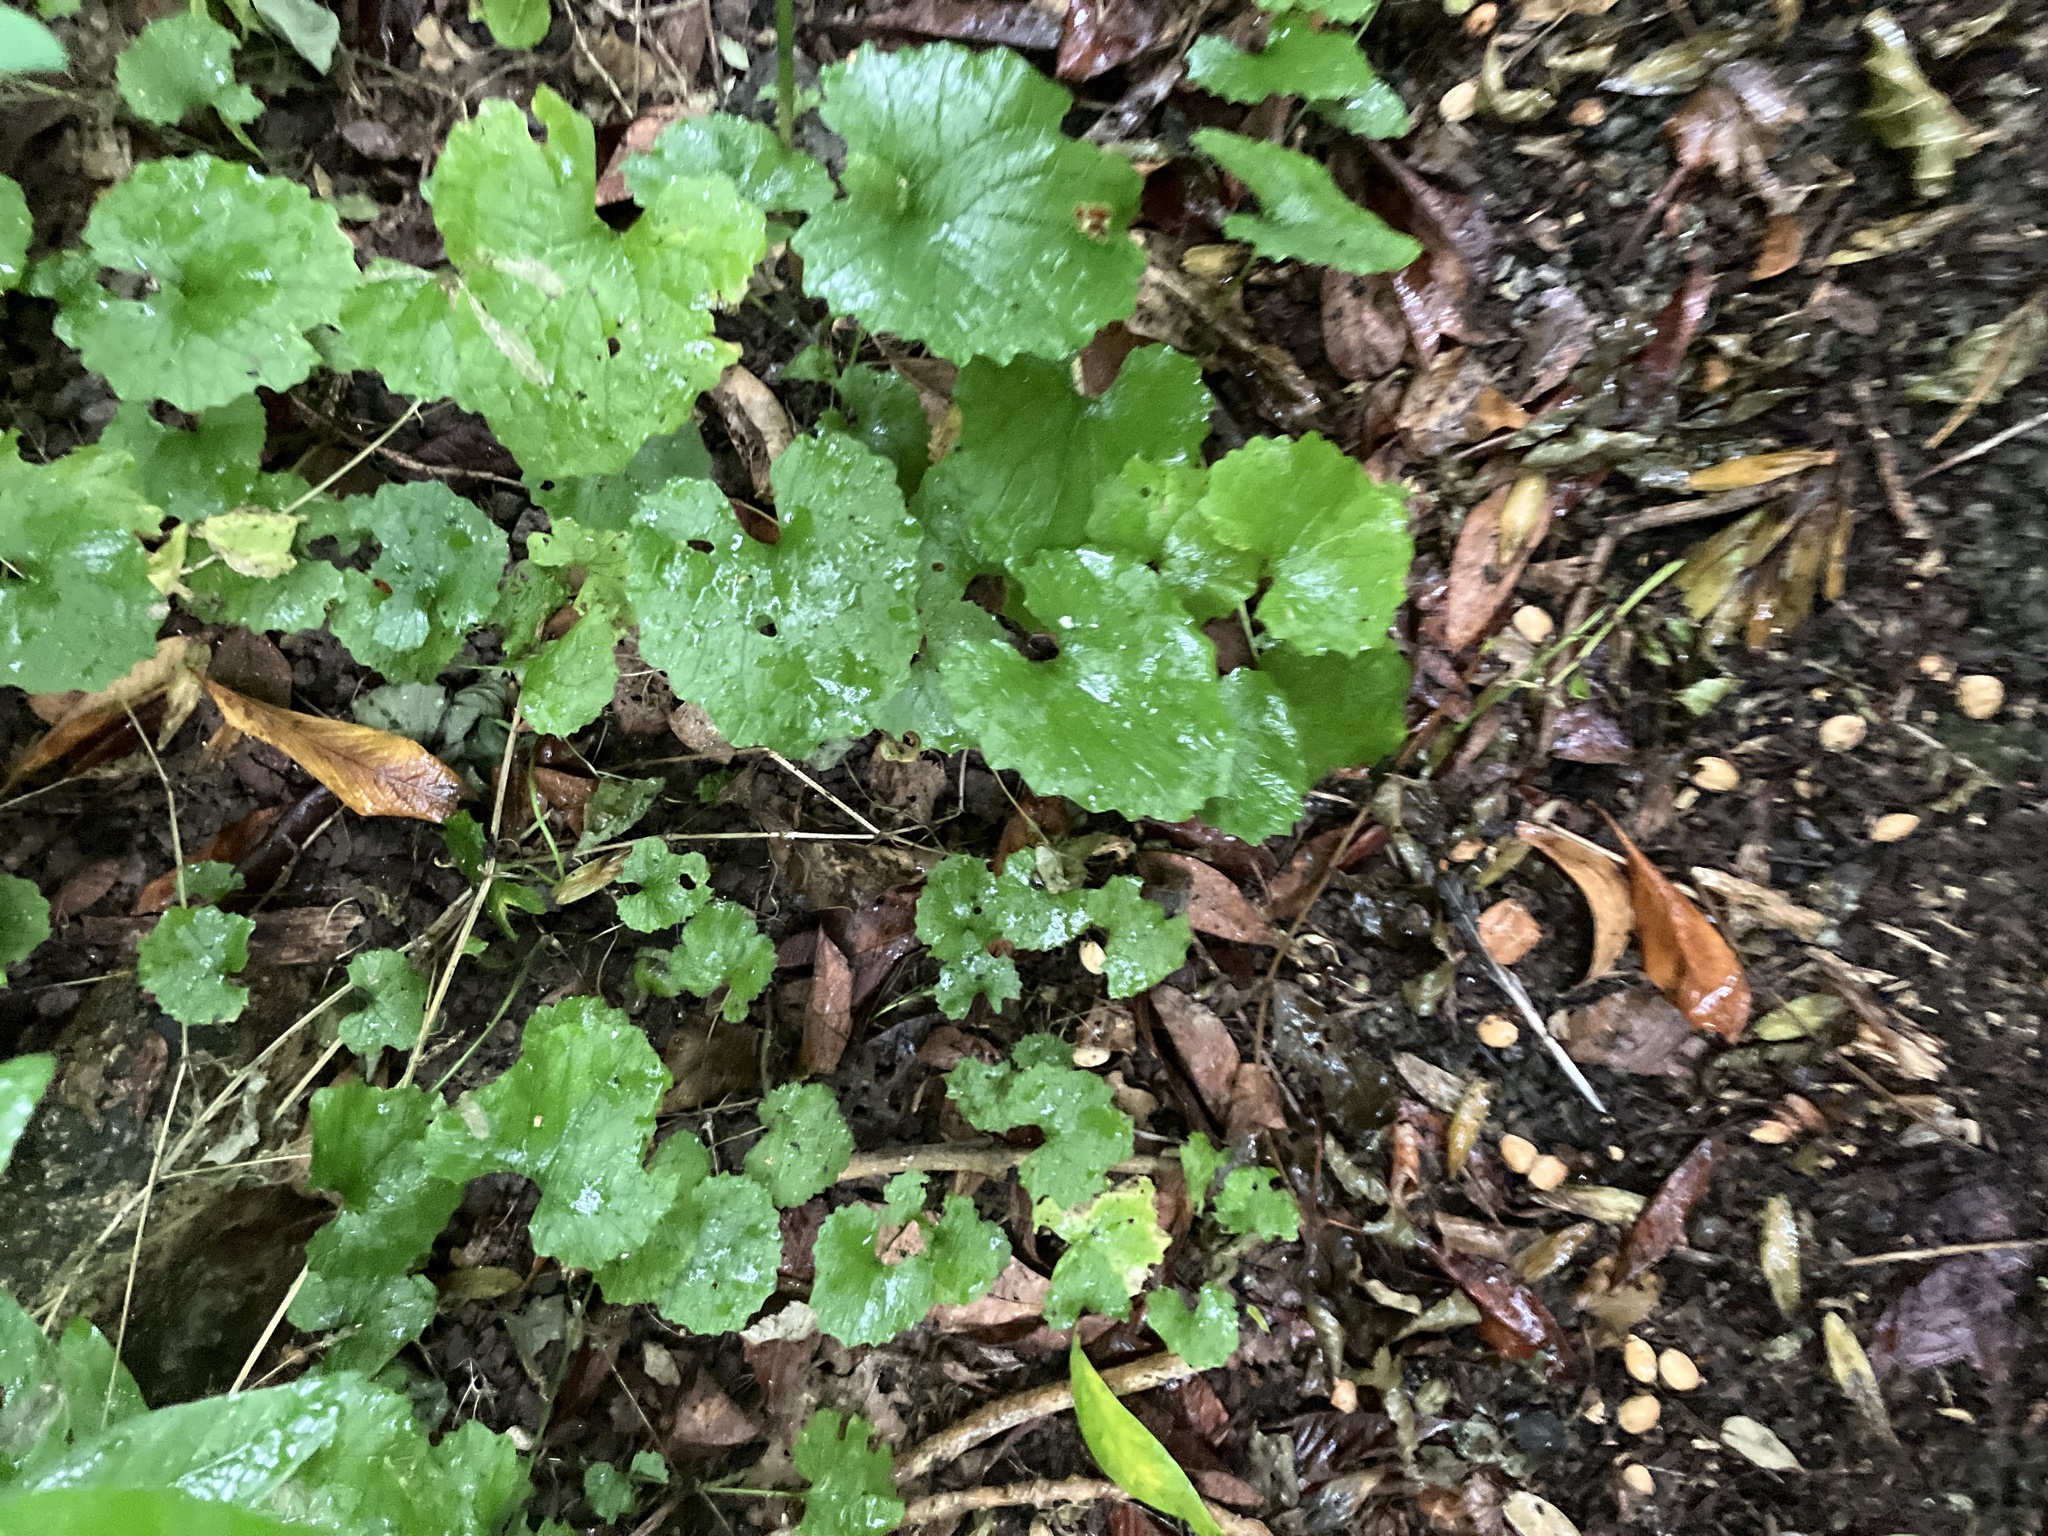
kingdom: Plantae
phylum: Tracheophyta
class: Magnoliopsida
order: Brassicales
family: Brassicaceae
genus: Alliaria
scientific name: Alliaria petiolata
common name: Garlic mustard
